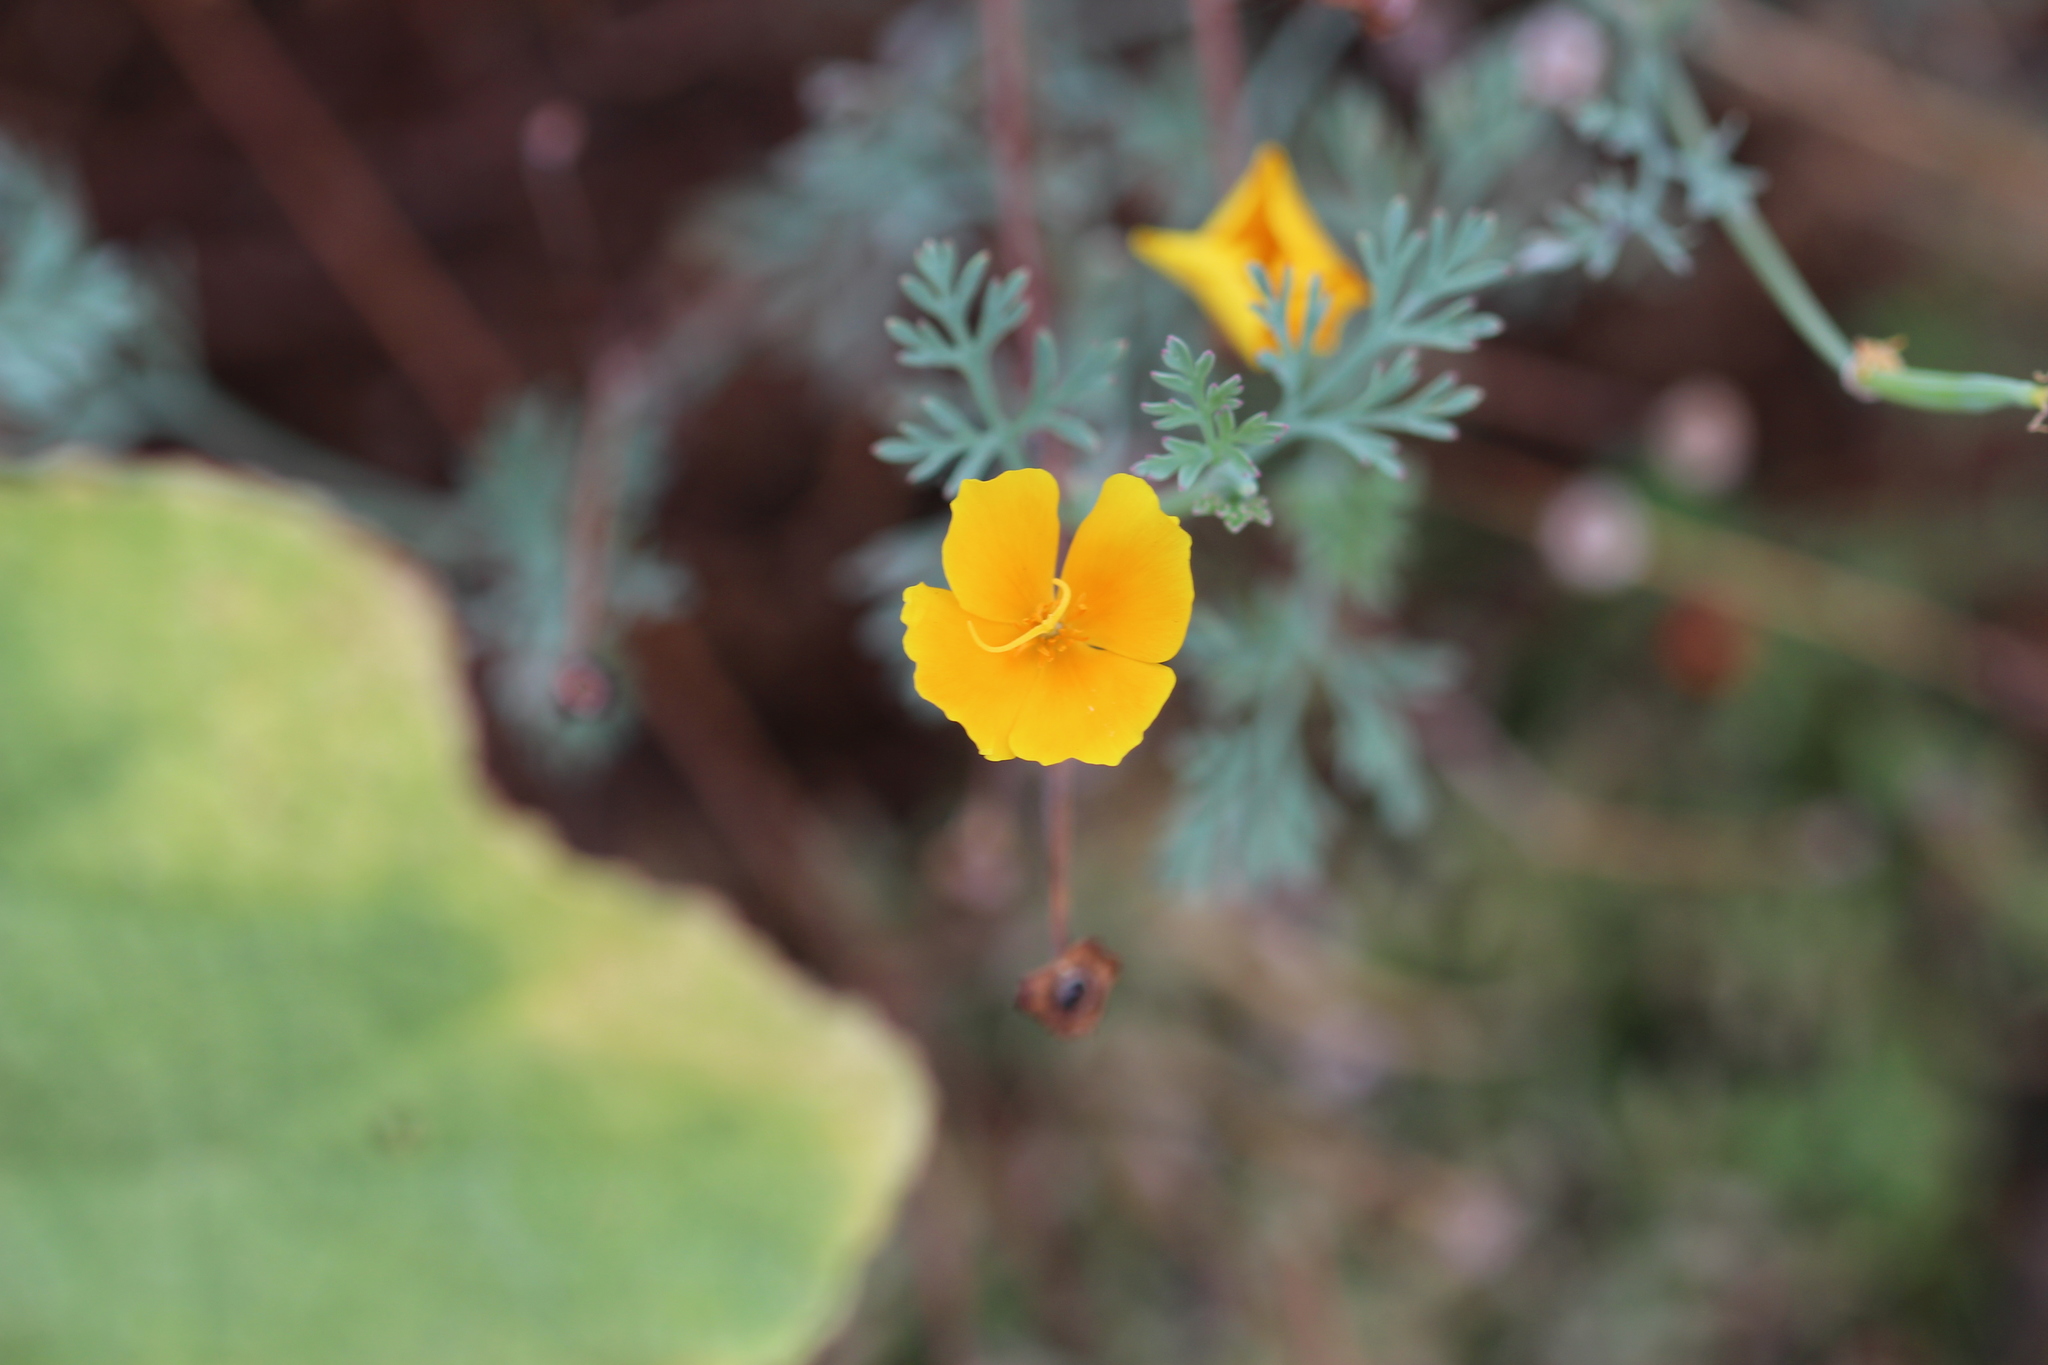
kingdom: Plantae
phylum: Tracheophyta
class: Magnoliopsida
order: Ranunculales
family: Papaveraceae
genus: Eschscholzia
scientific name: Eschscholzia californica
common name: California poppy
